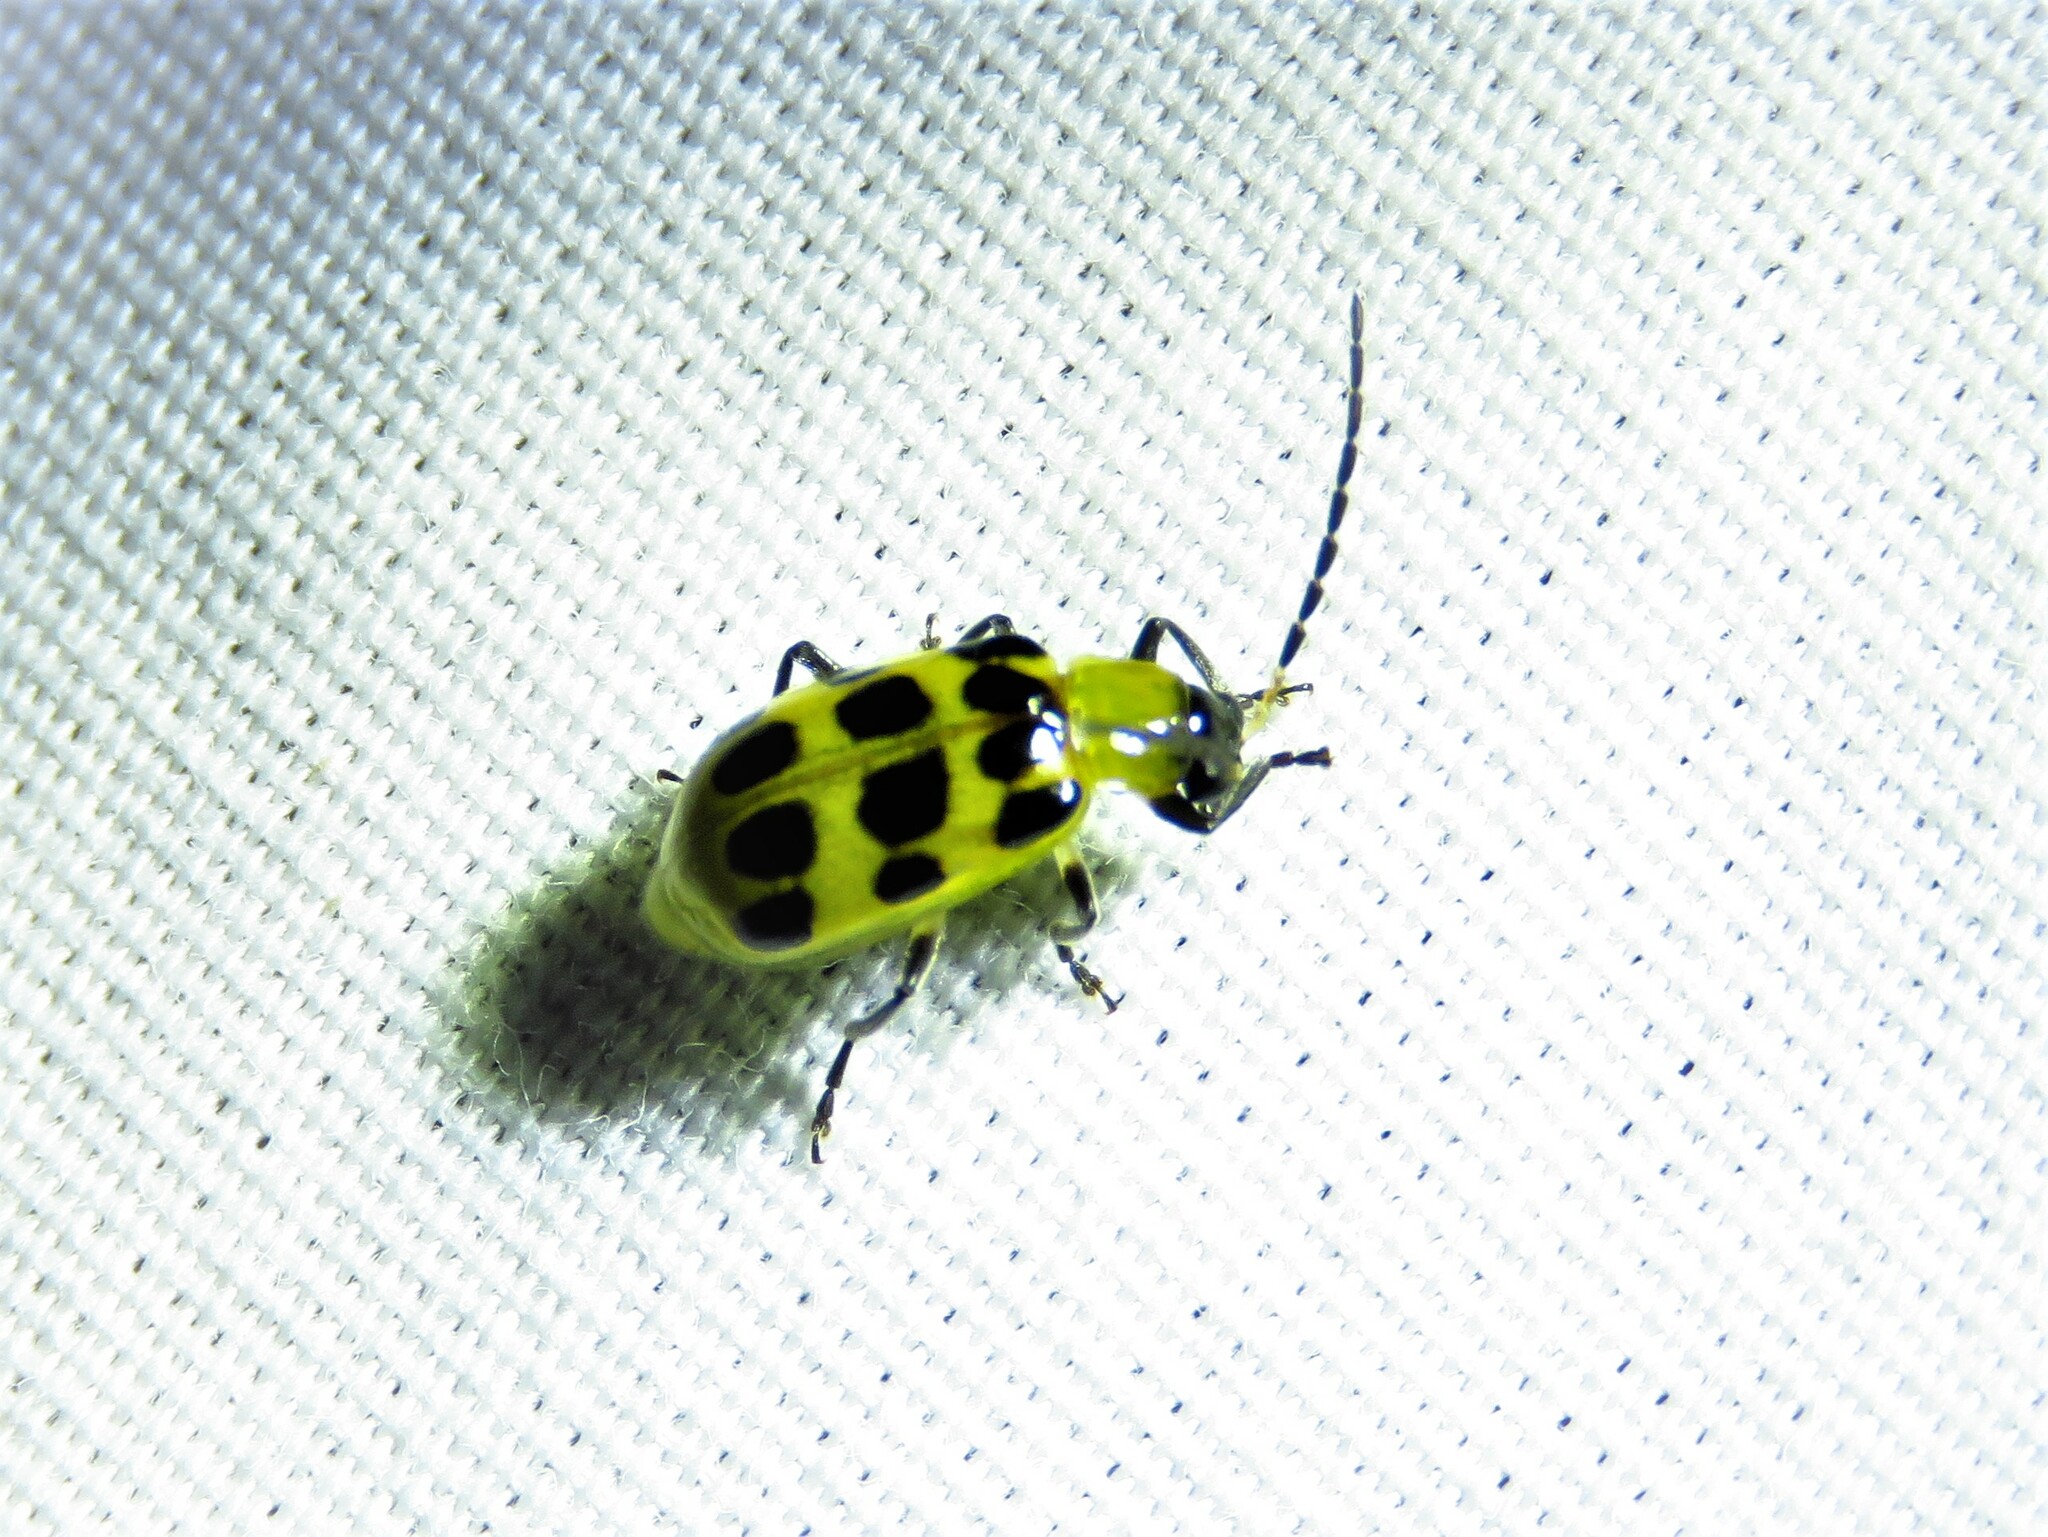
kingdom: Animalia
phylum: Arthropoda
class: Insecta
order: Coleoptera
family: Chrysomelidae
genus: Diabrotica
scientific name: Diabrotica undecimpunctata
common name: Spotted cucumber beetle
